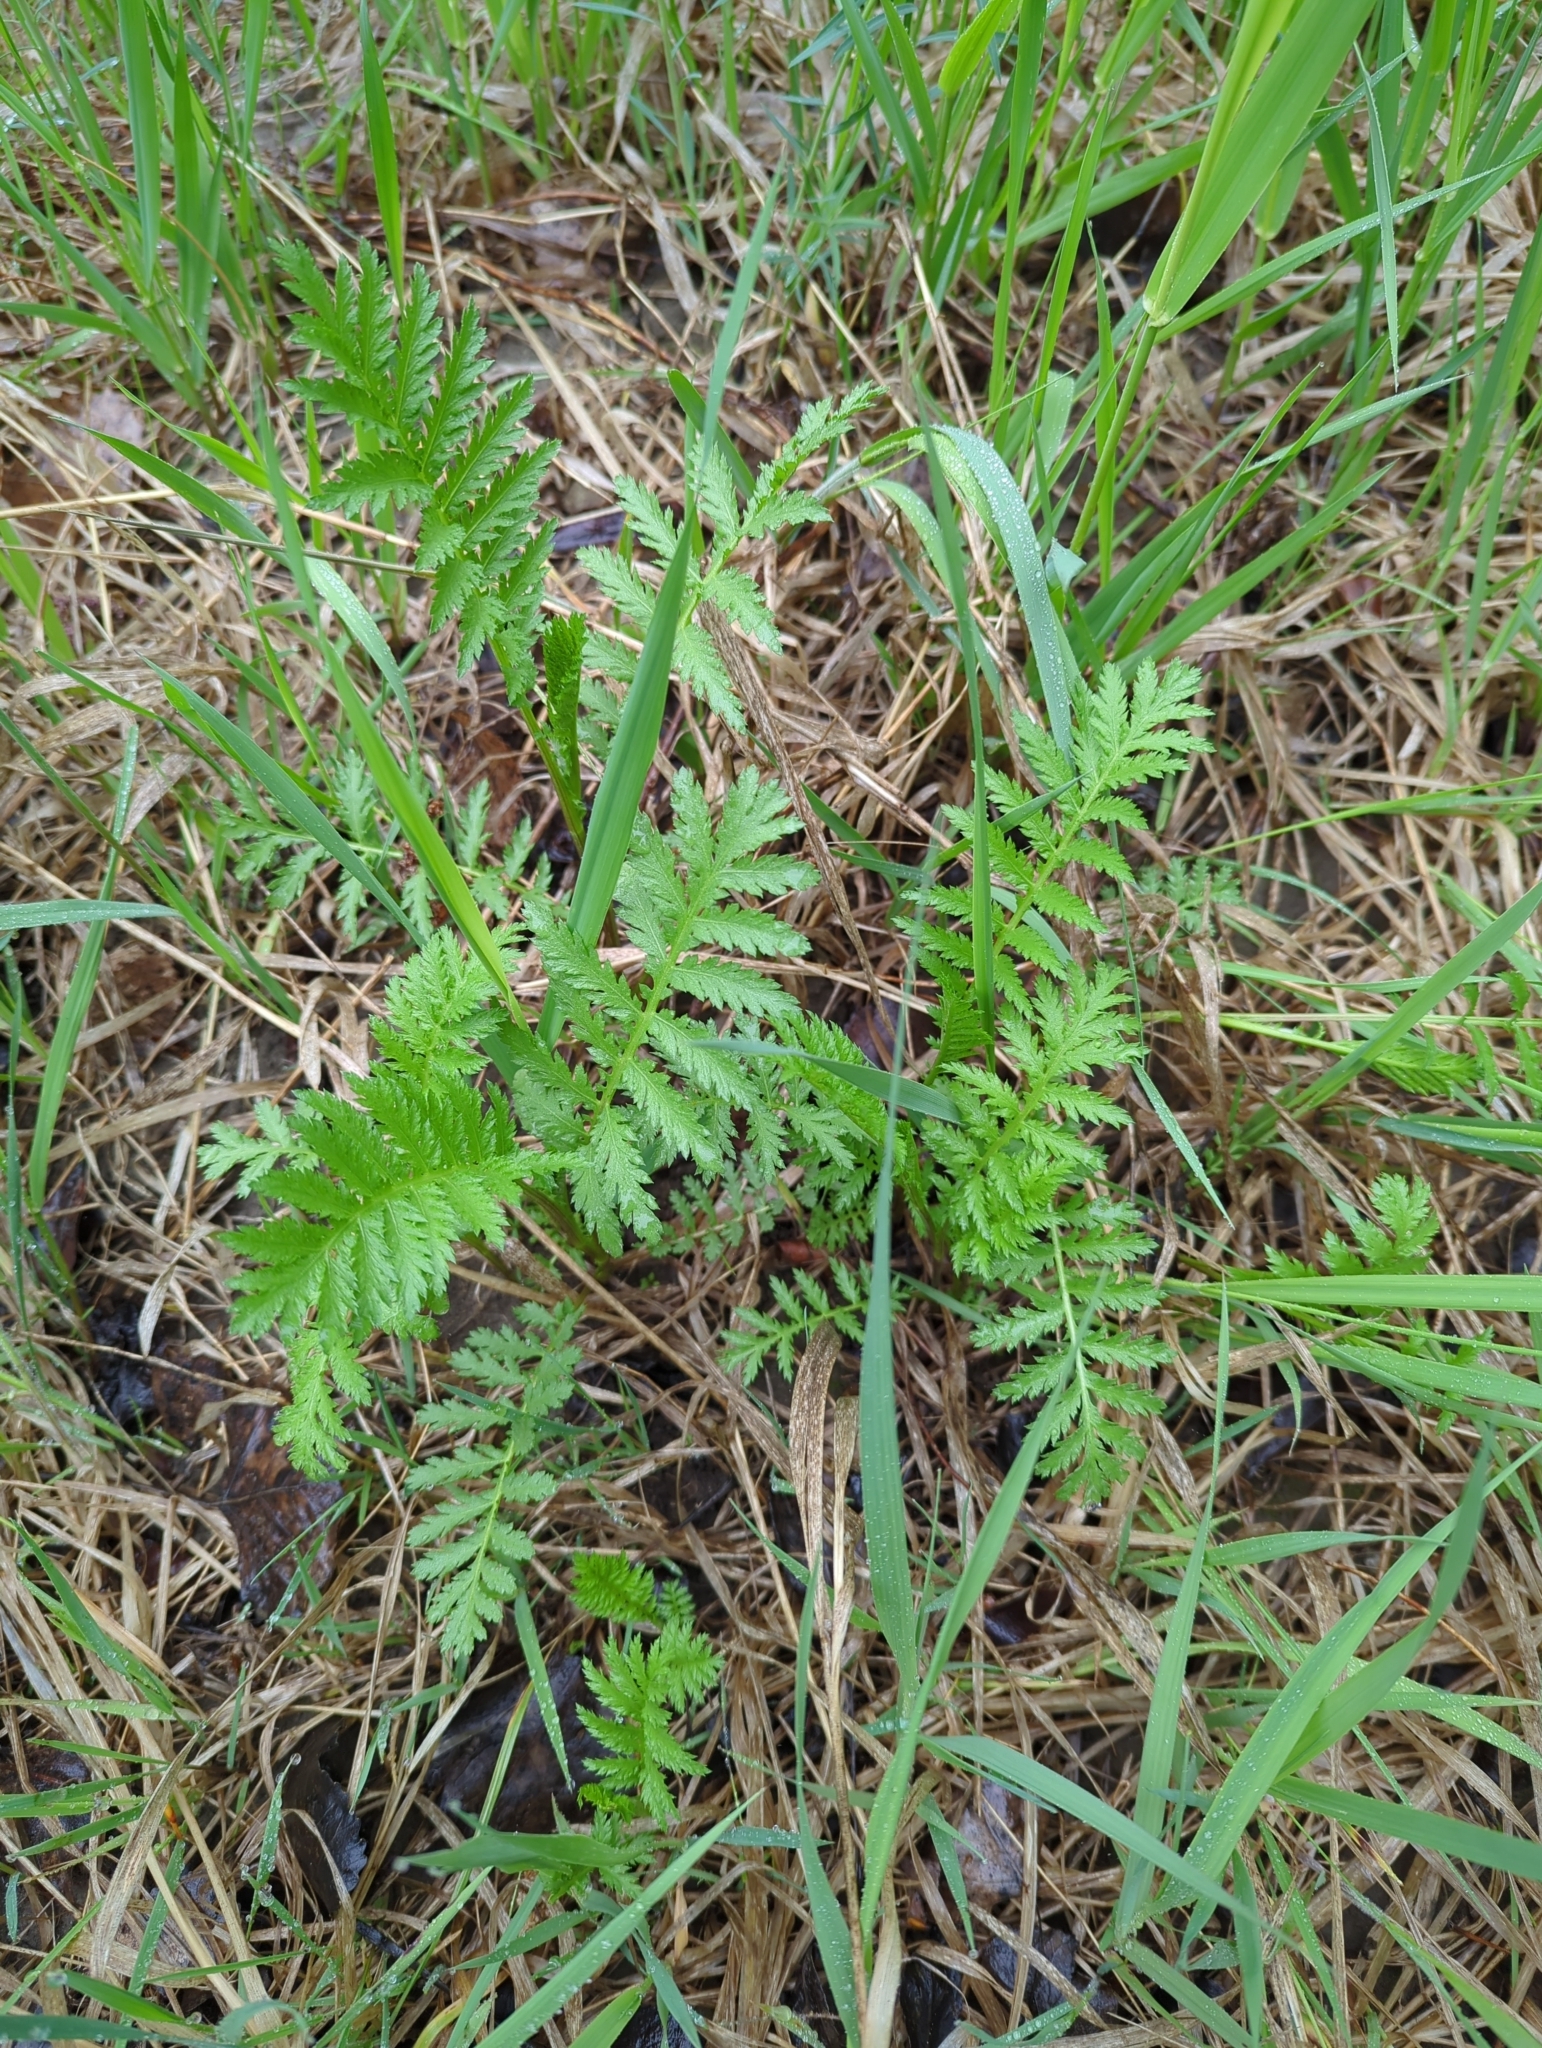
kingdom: Plantae
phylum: Tracheophyta
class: Magnoliopsida
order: Asterales
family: Asteraceae
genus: Tanacetum
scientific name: Tanacetum vulgare
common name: Common tansy
